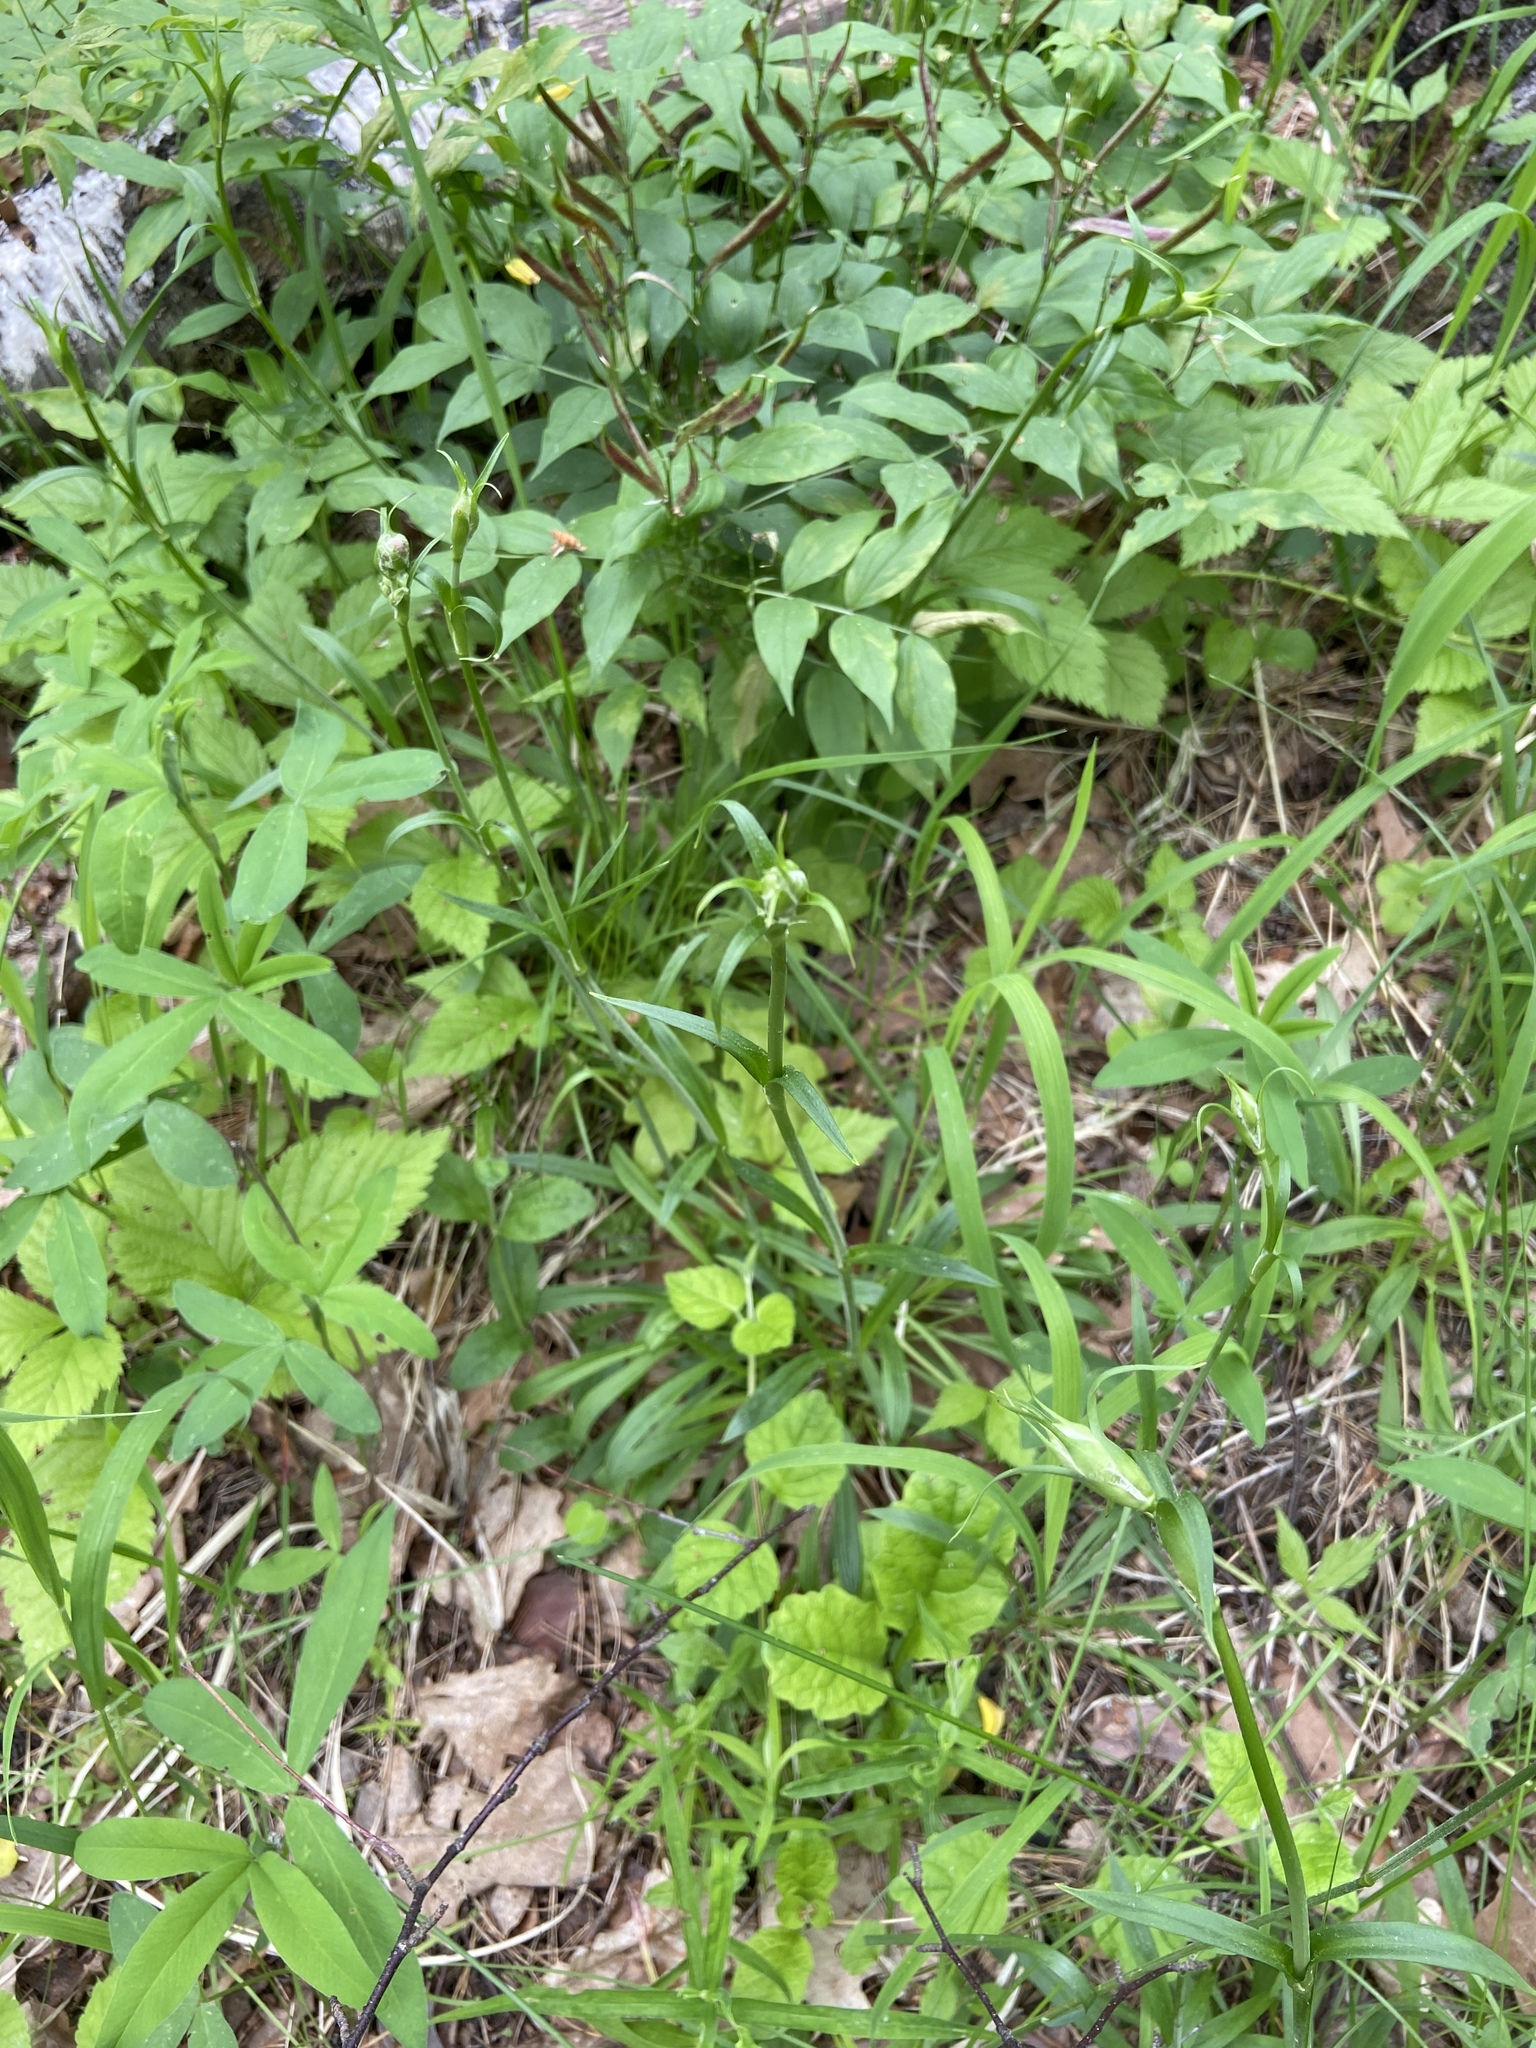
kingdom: Plantae
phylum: Tracheophyta
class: Magnoliopsida
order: Caryophyllales
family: Caryophyllaceae
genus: Viscaria
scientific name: Viscaria vulgaris
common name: Clammy campion
